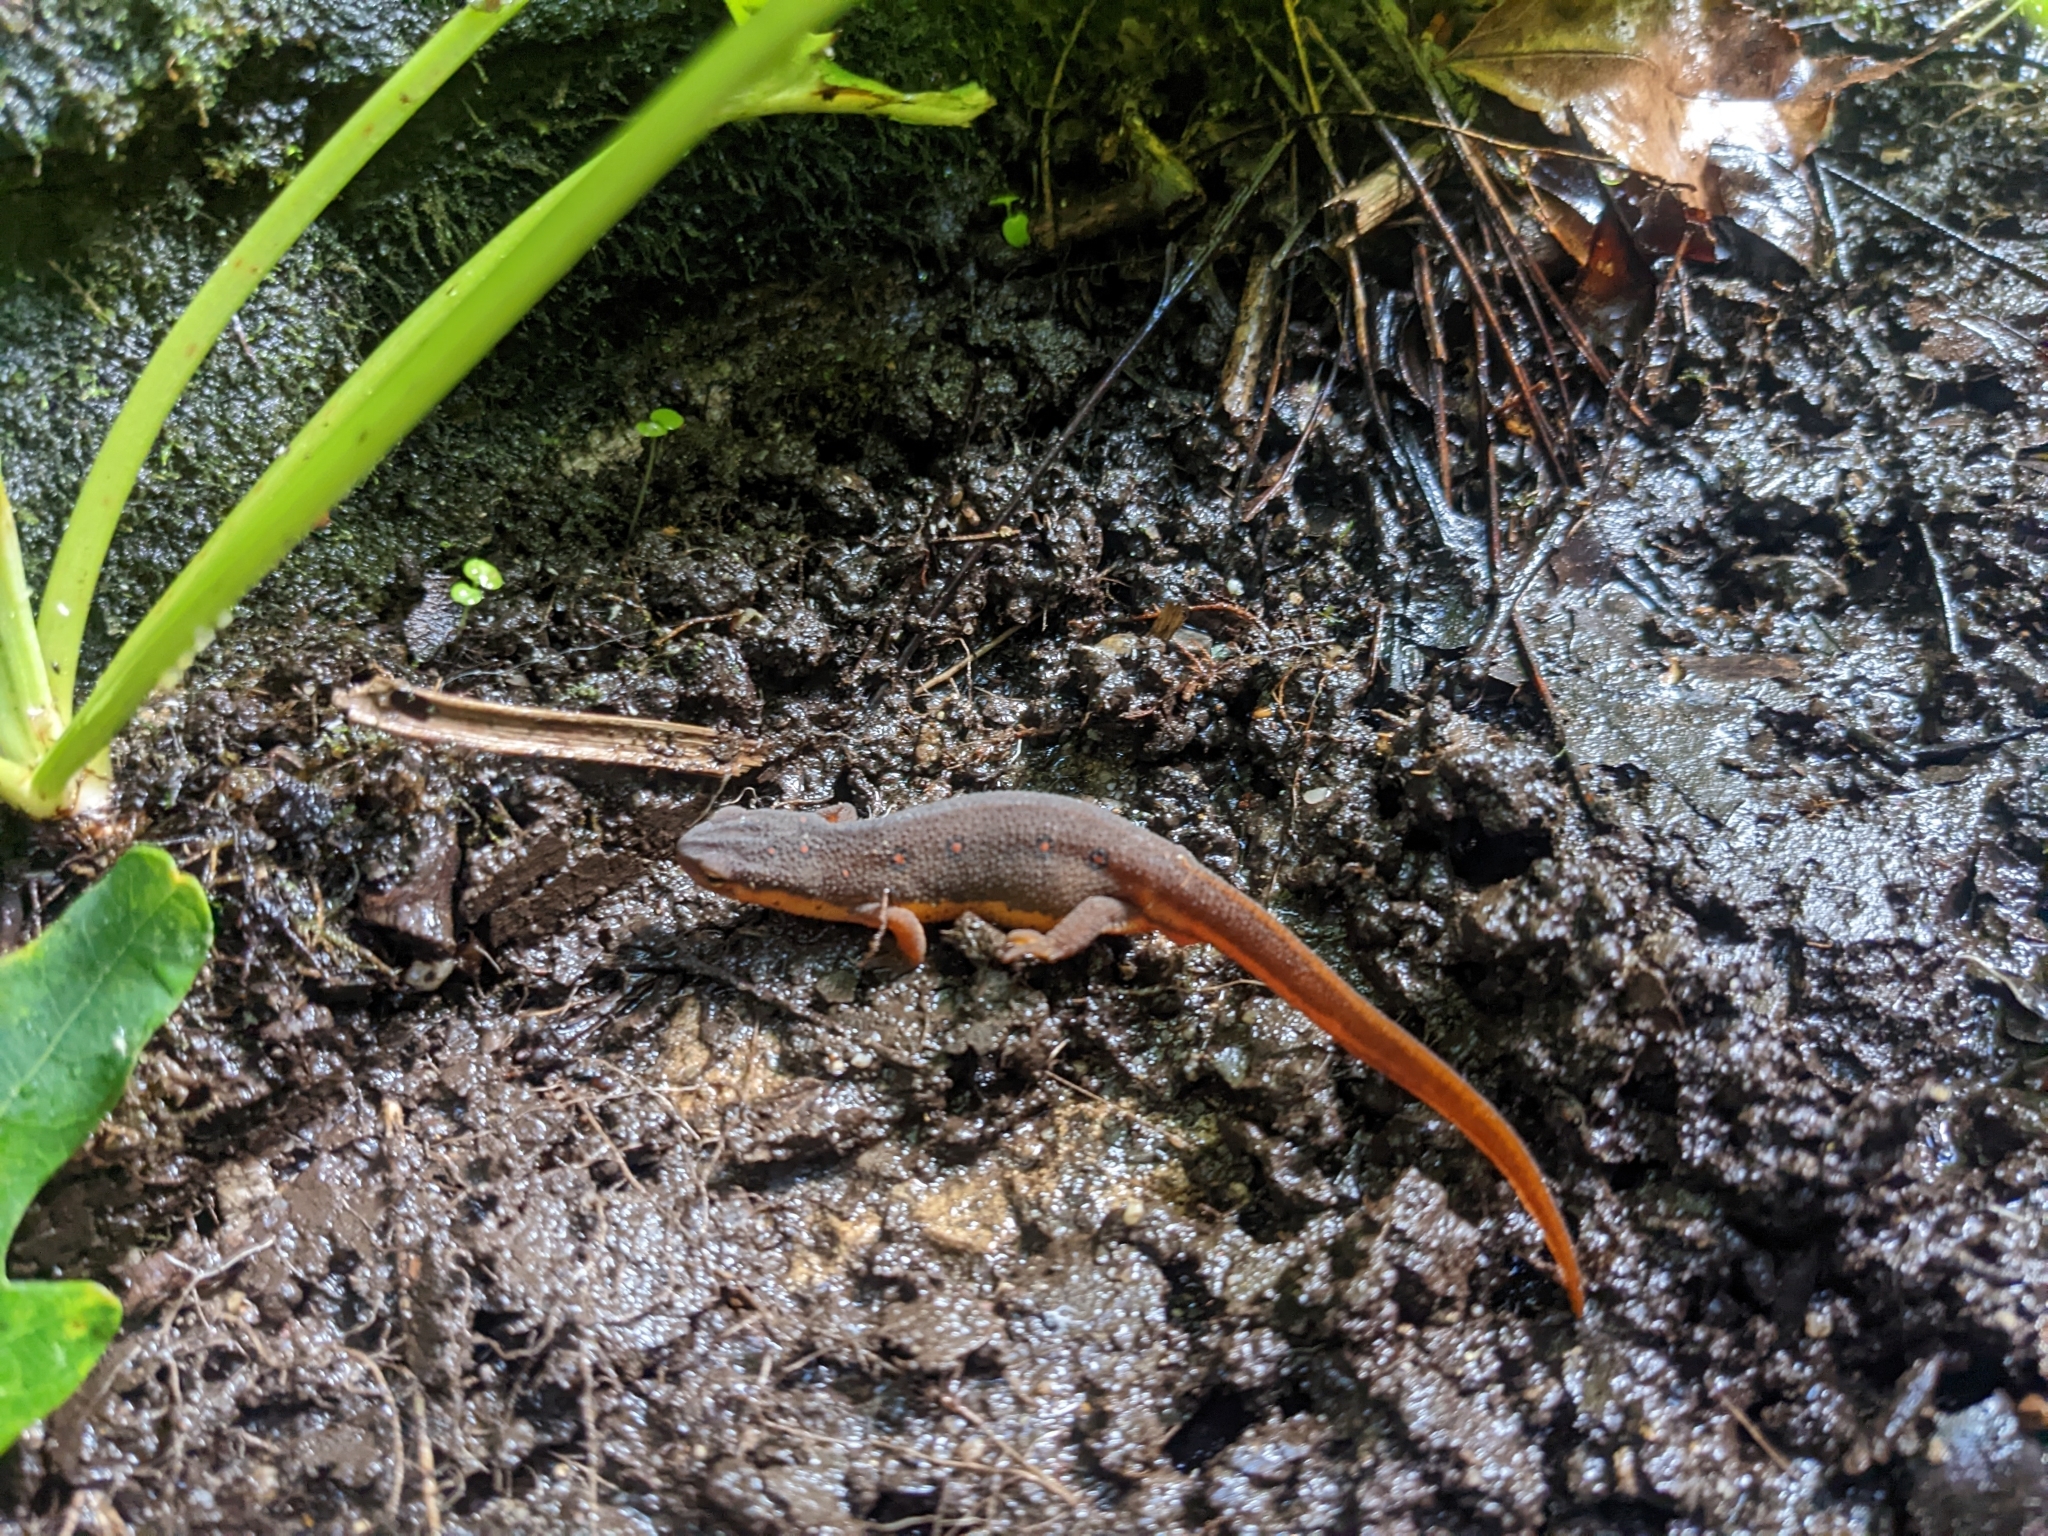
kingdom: Animalia
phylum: Chordata
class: Amphibia
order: Caudata
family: Salamandridae
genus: Notophthalmus
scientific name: Notophthalmus viridescens
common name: Eastern newt
